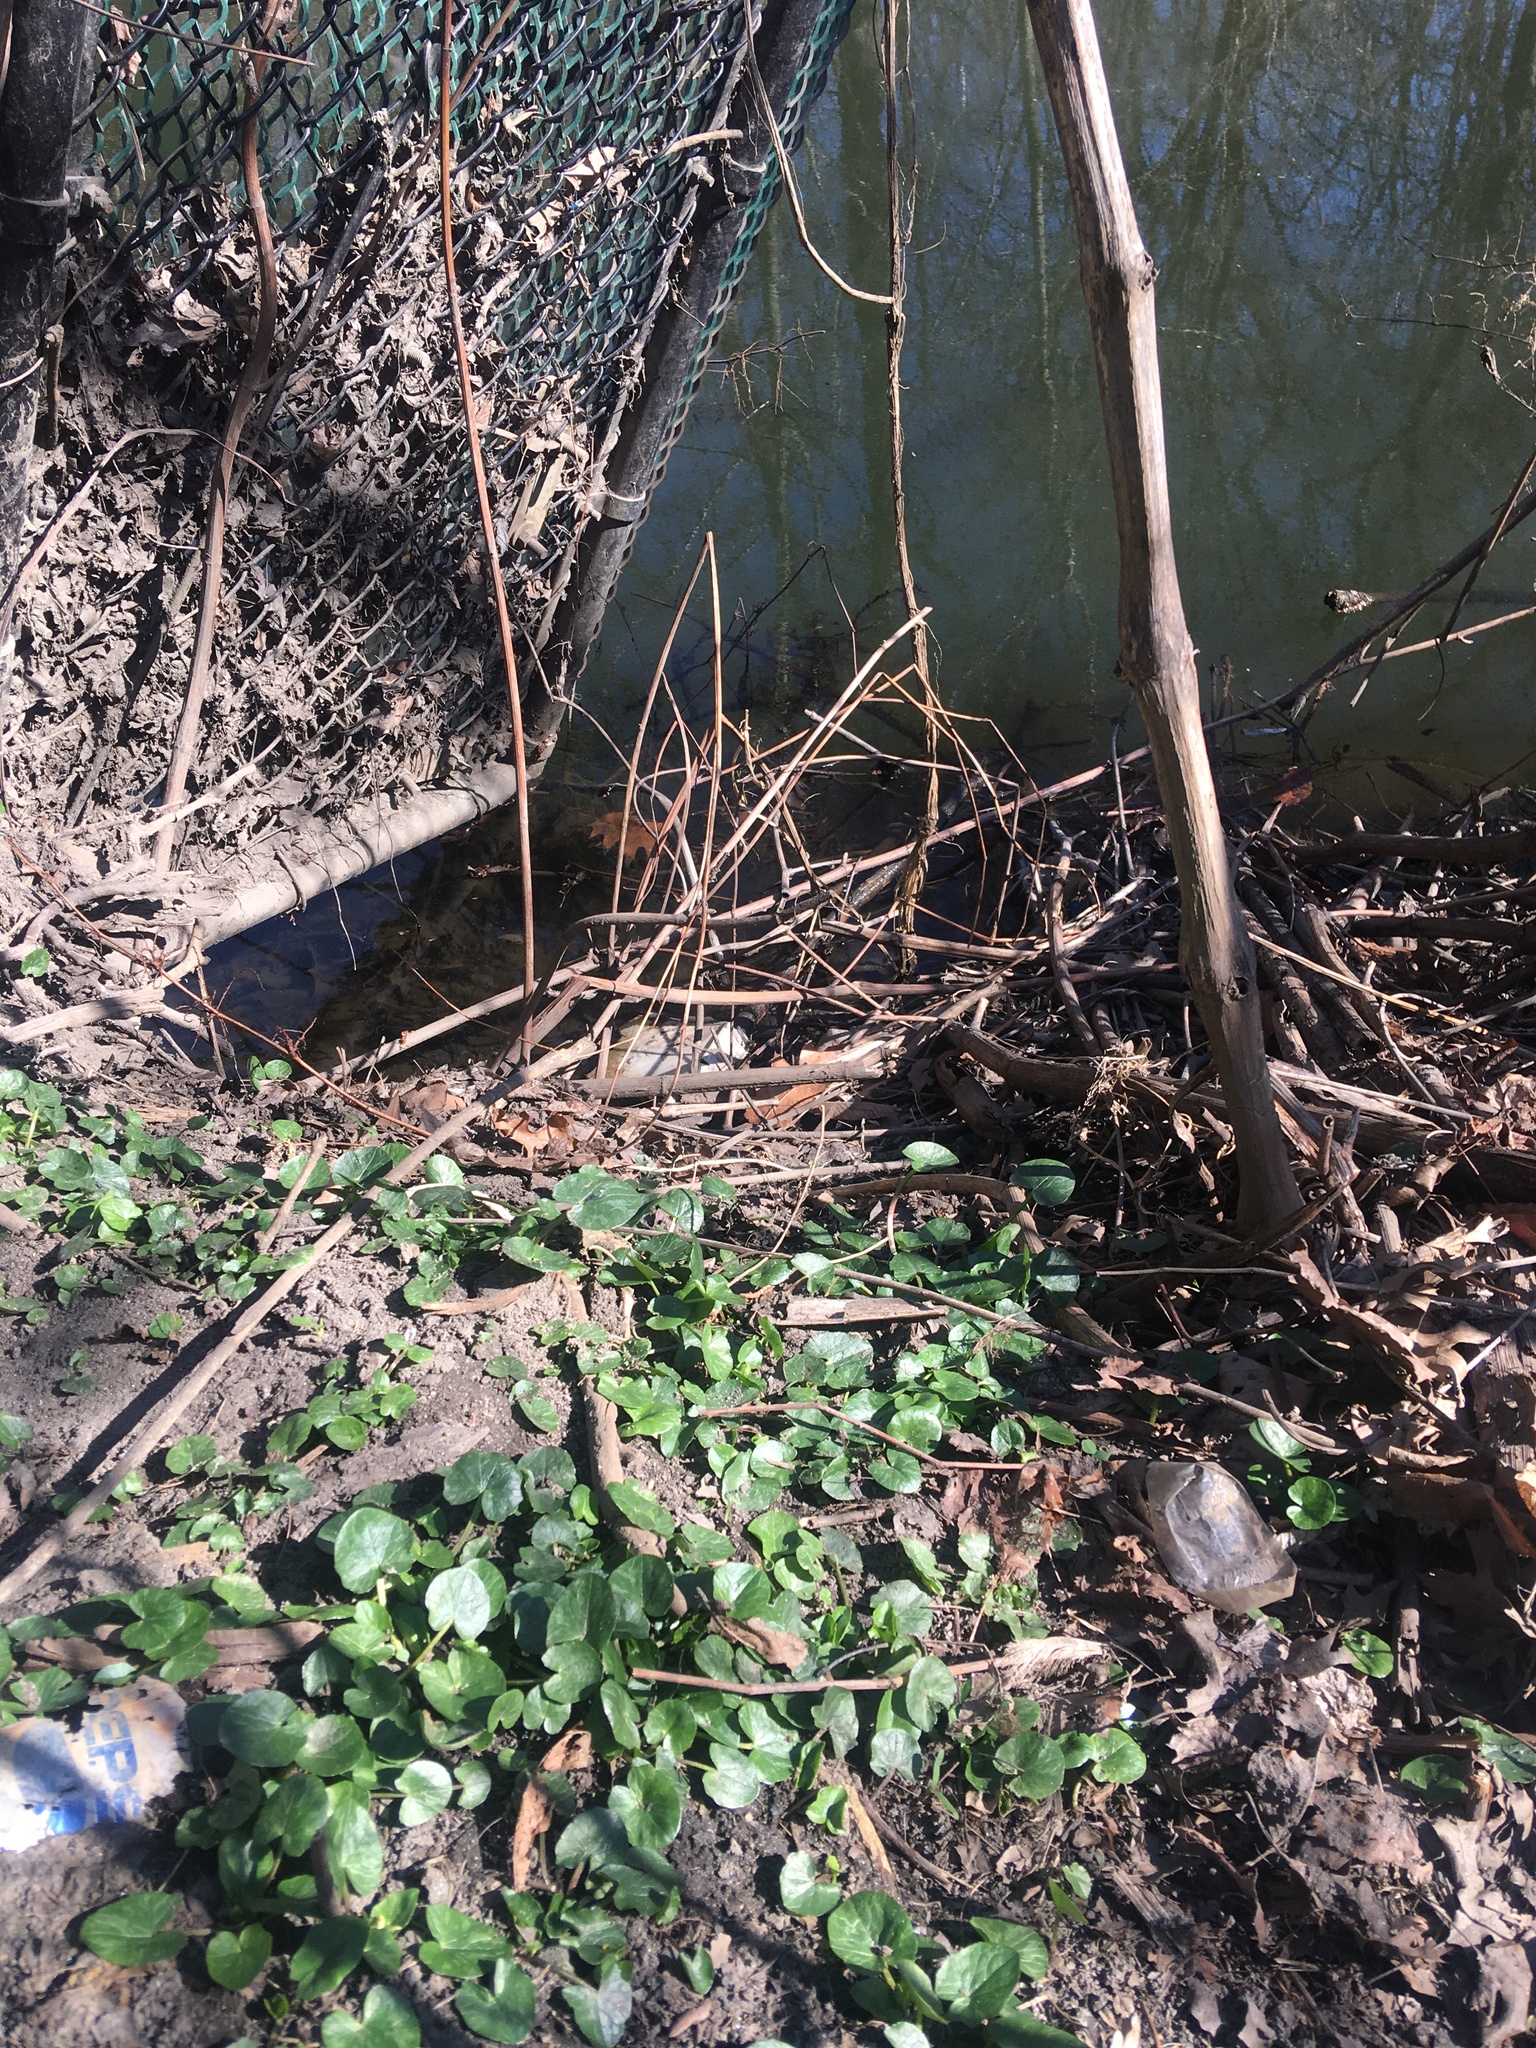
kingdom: Plantae
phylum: Tracheophyta
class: Magnoliopsida
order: Ranunculales
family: Ranunculaceae
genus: Ficaria
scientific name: Ficaria verna
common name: Lesser celandine
